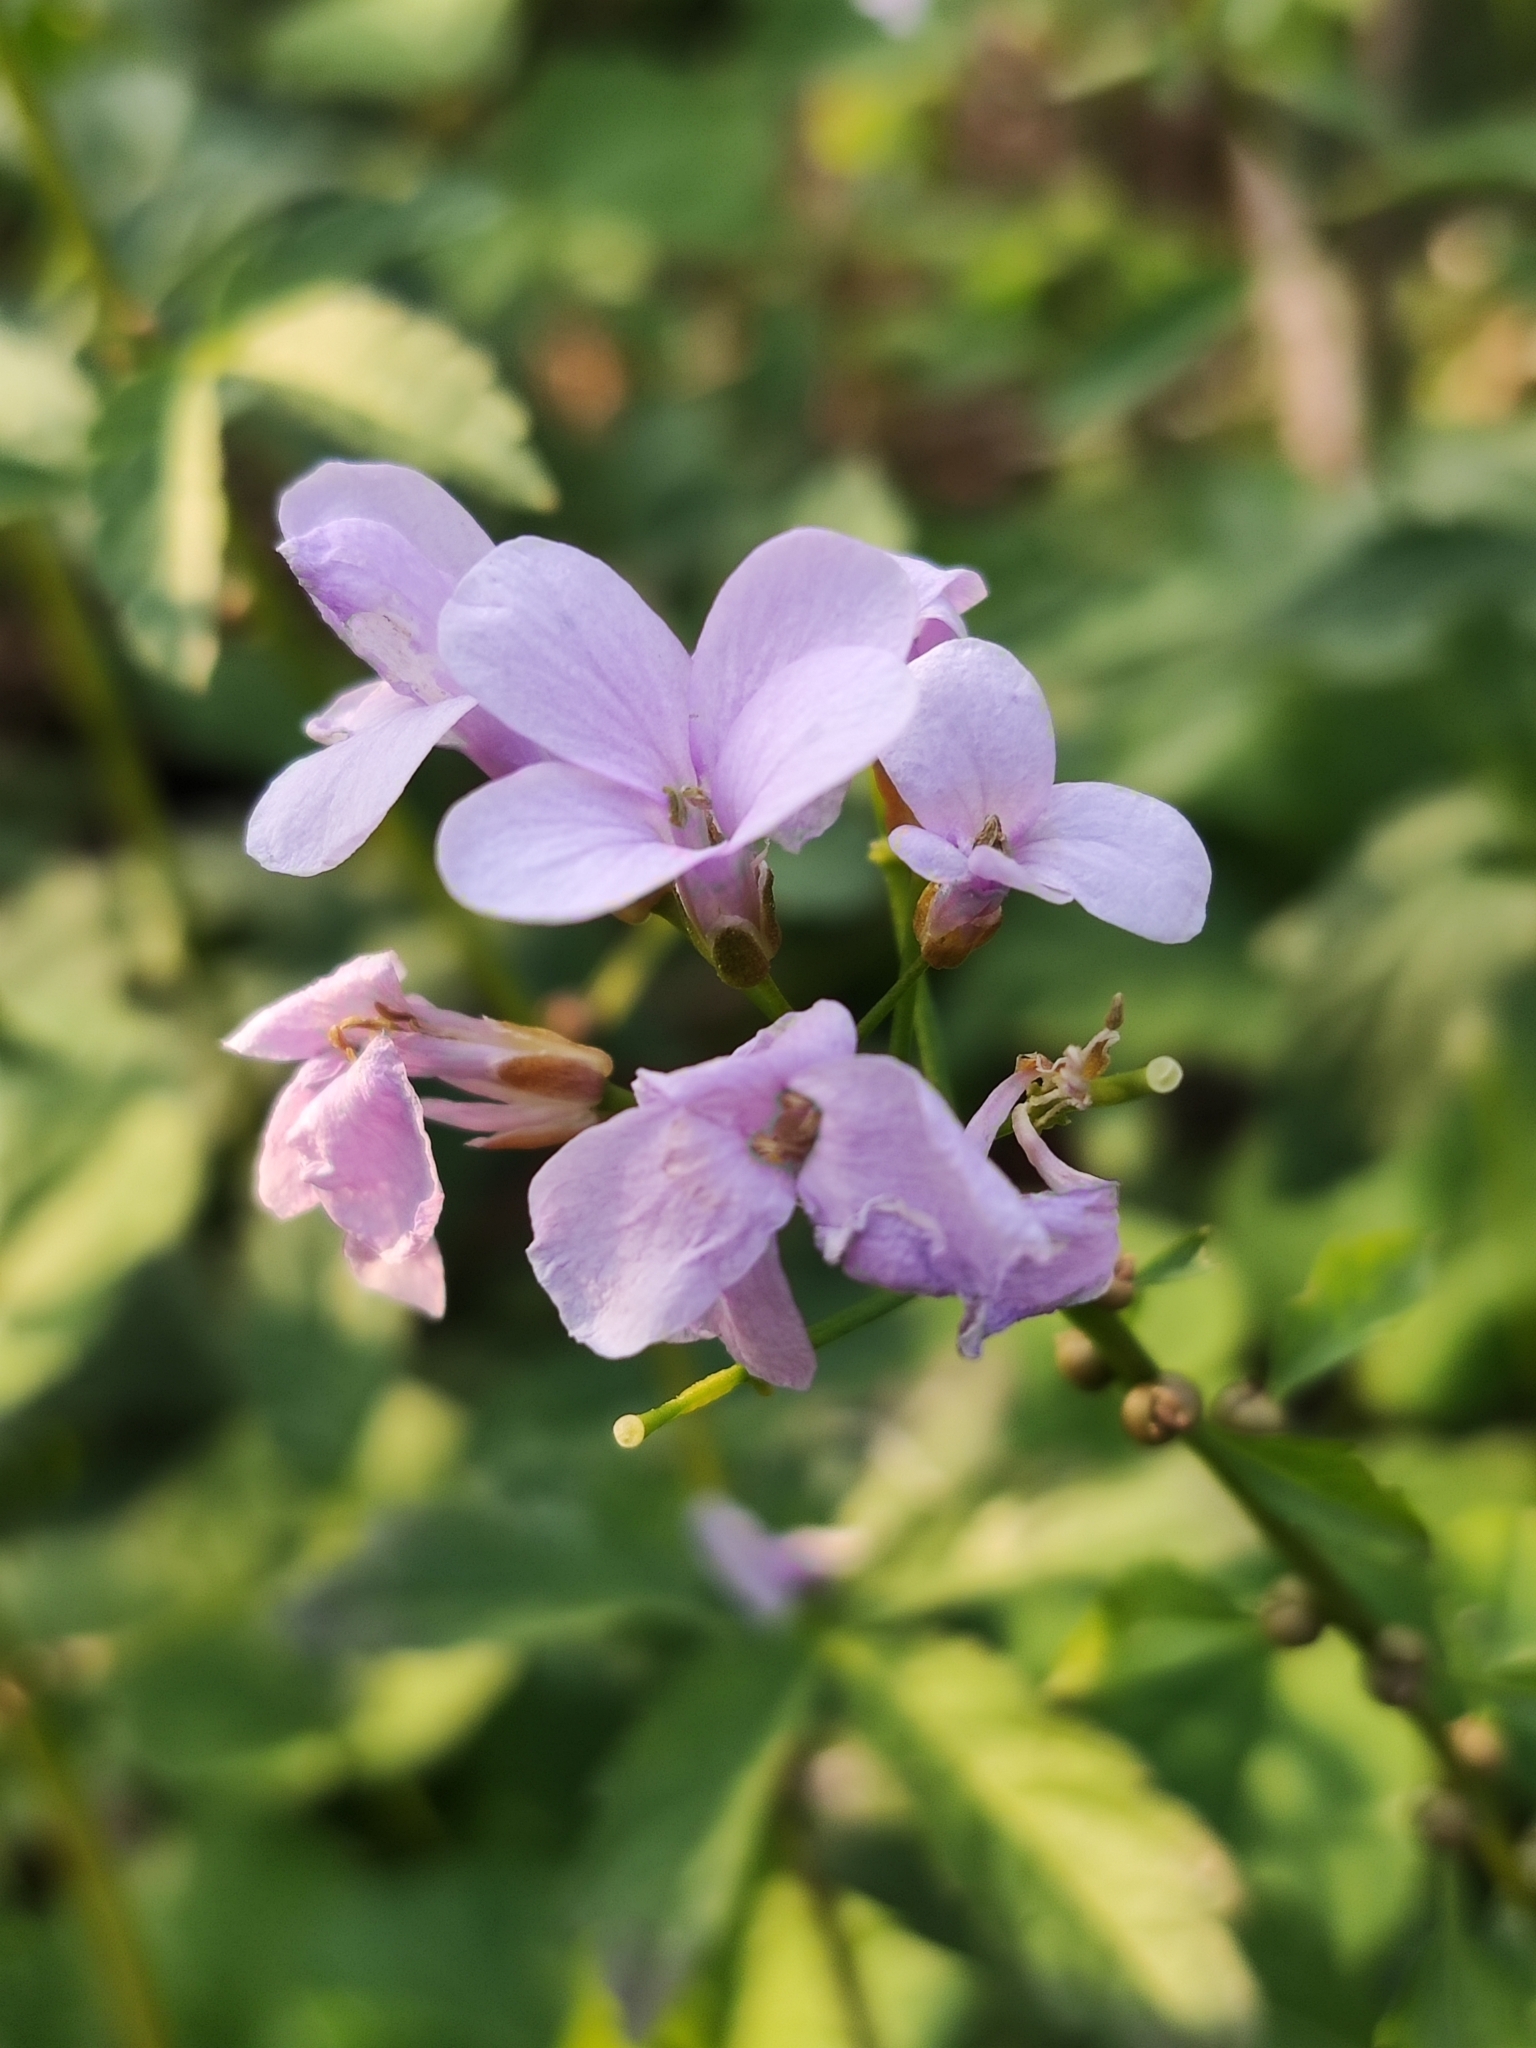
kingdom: Plantae
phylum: Tracheophyta
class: Magnoliopsida
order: Brassicales
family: Brassicaceae
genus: Cardamine
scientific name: Cardamine bulbifera
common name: Coralroot bittercress
